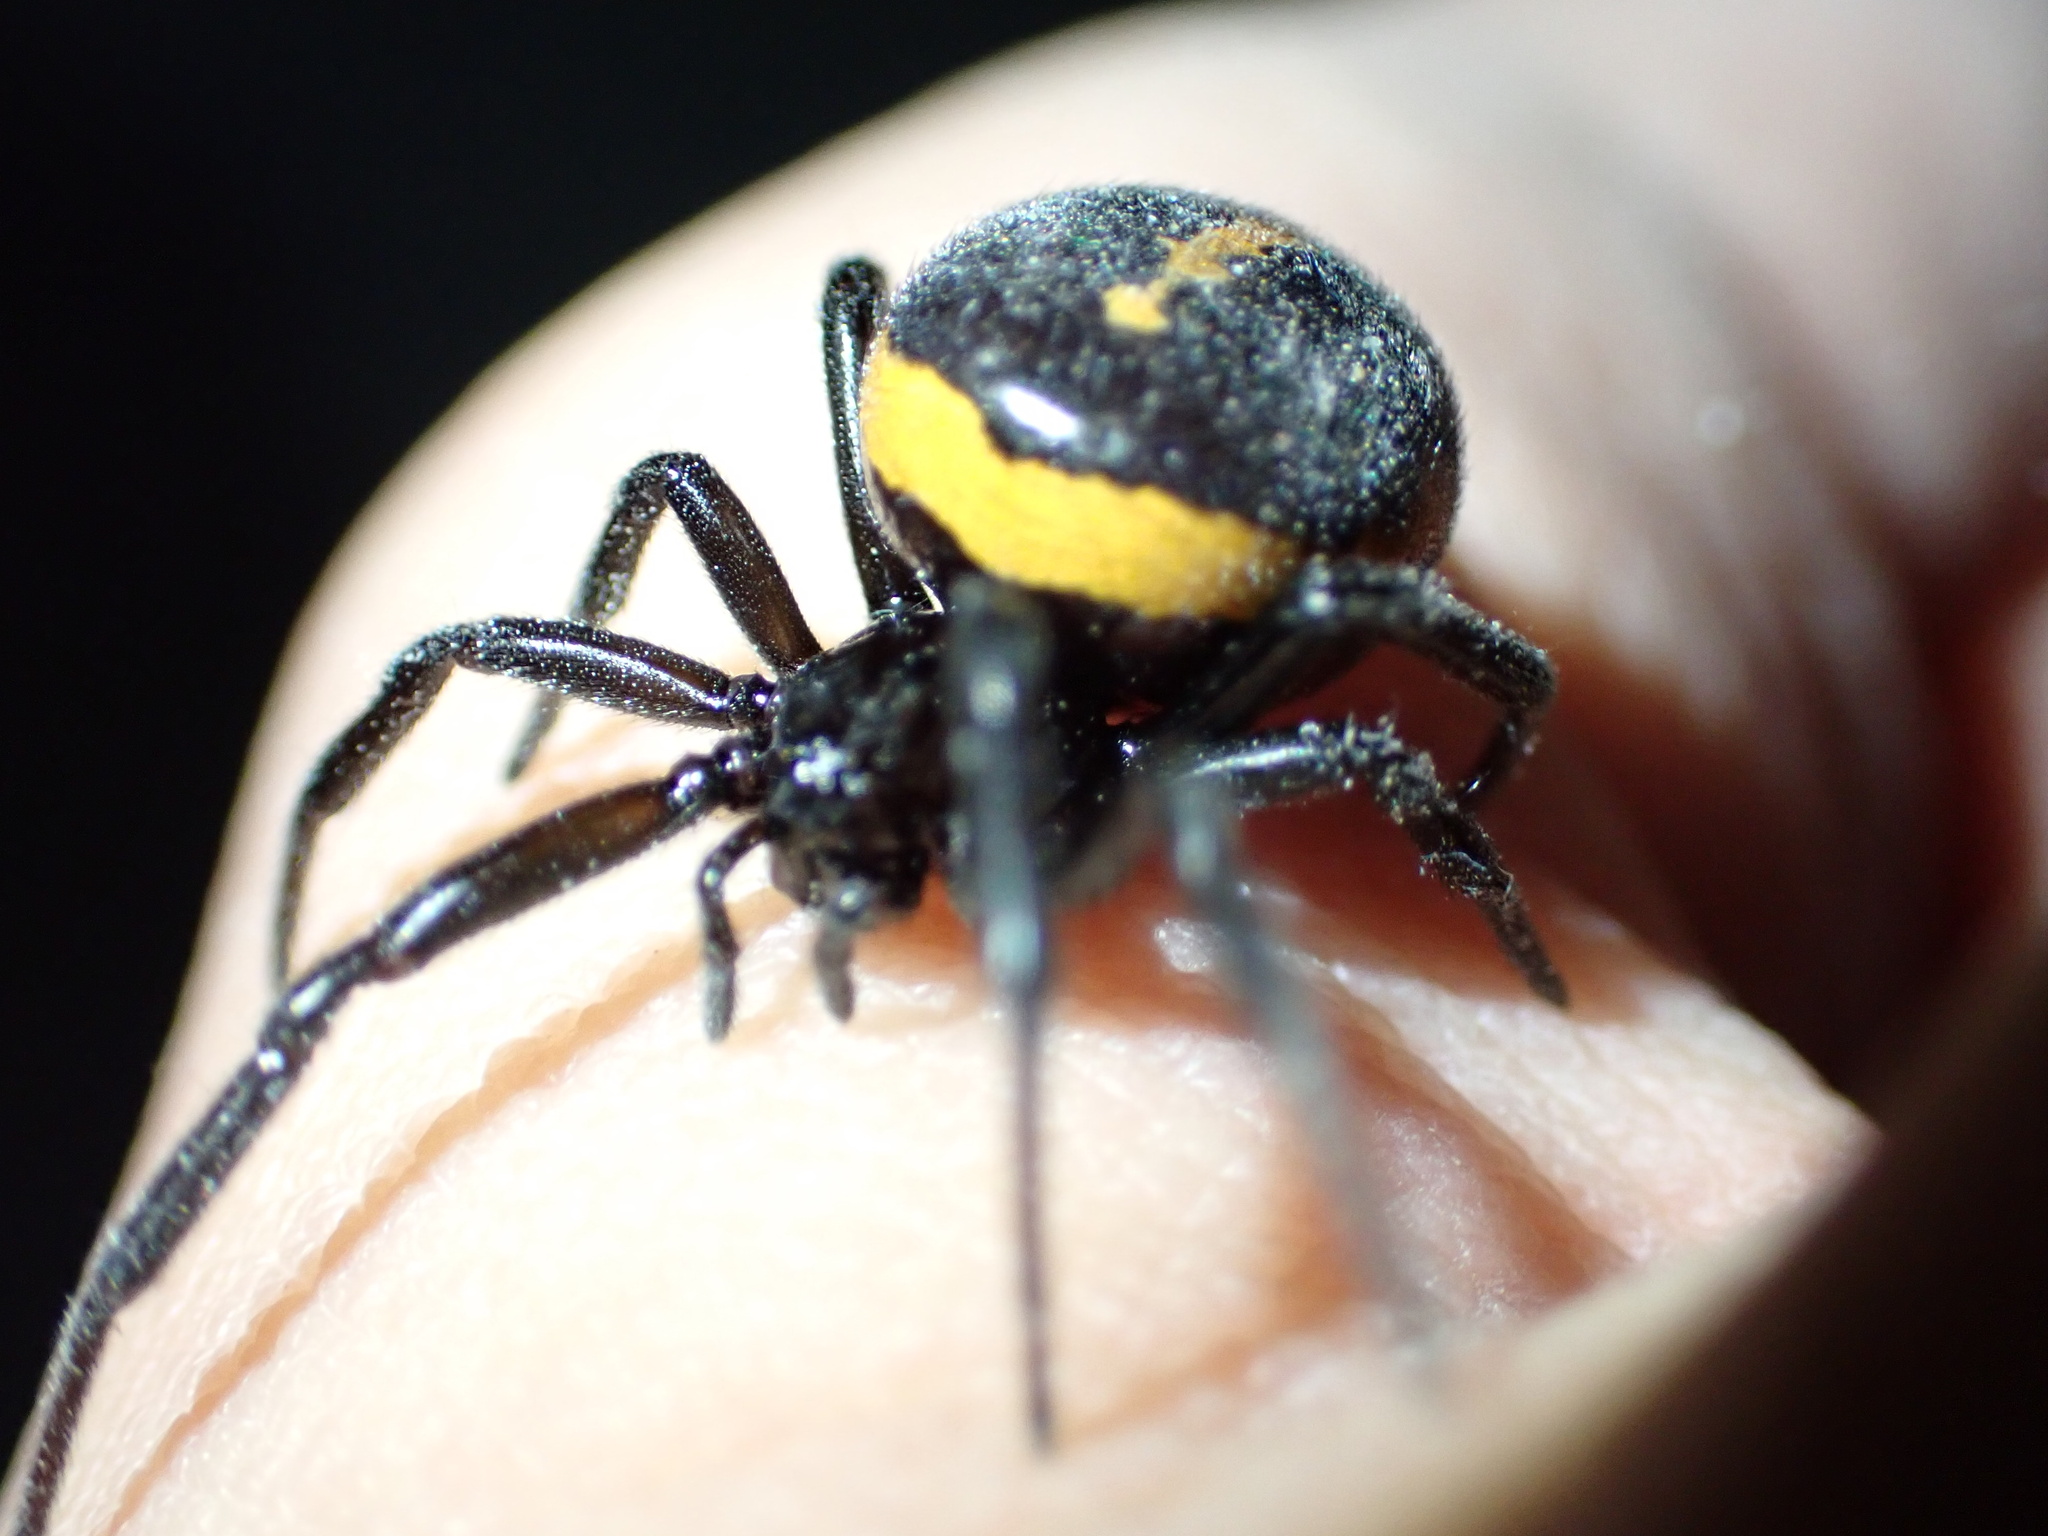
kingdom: Animalia
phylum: Arthropoda
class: Arachnida
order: Araneae
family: Theridiidae
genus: Steatoda
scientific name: Steatoda paykulliana
